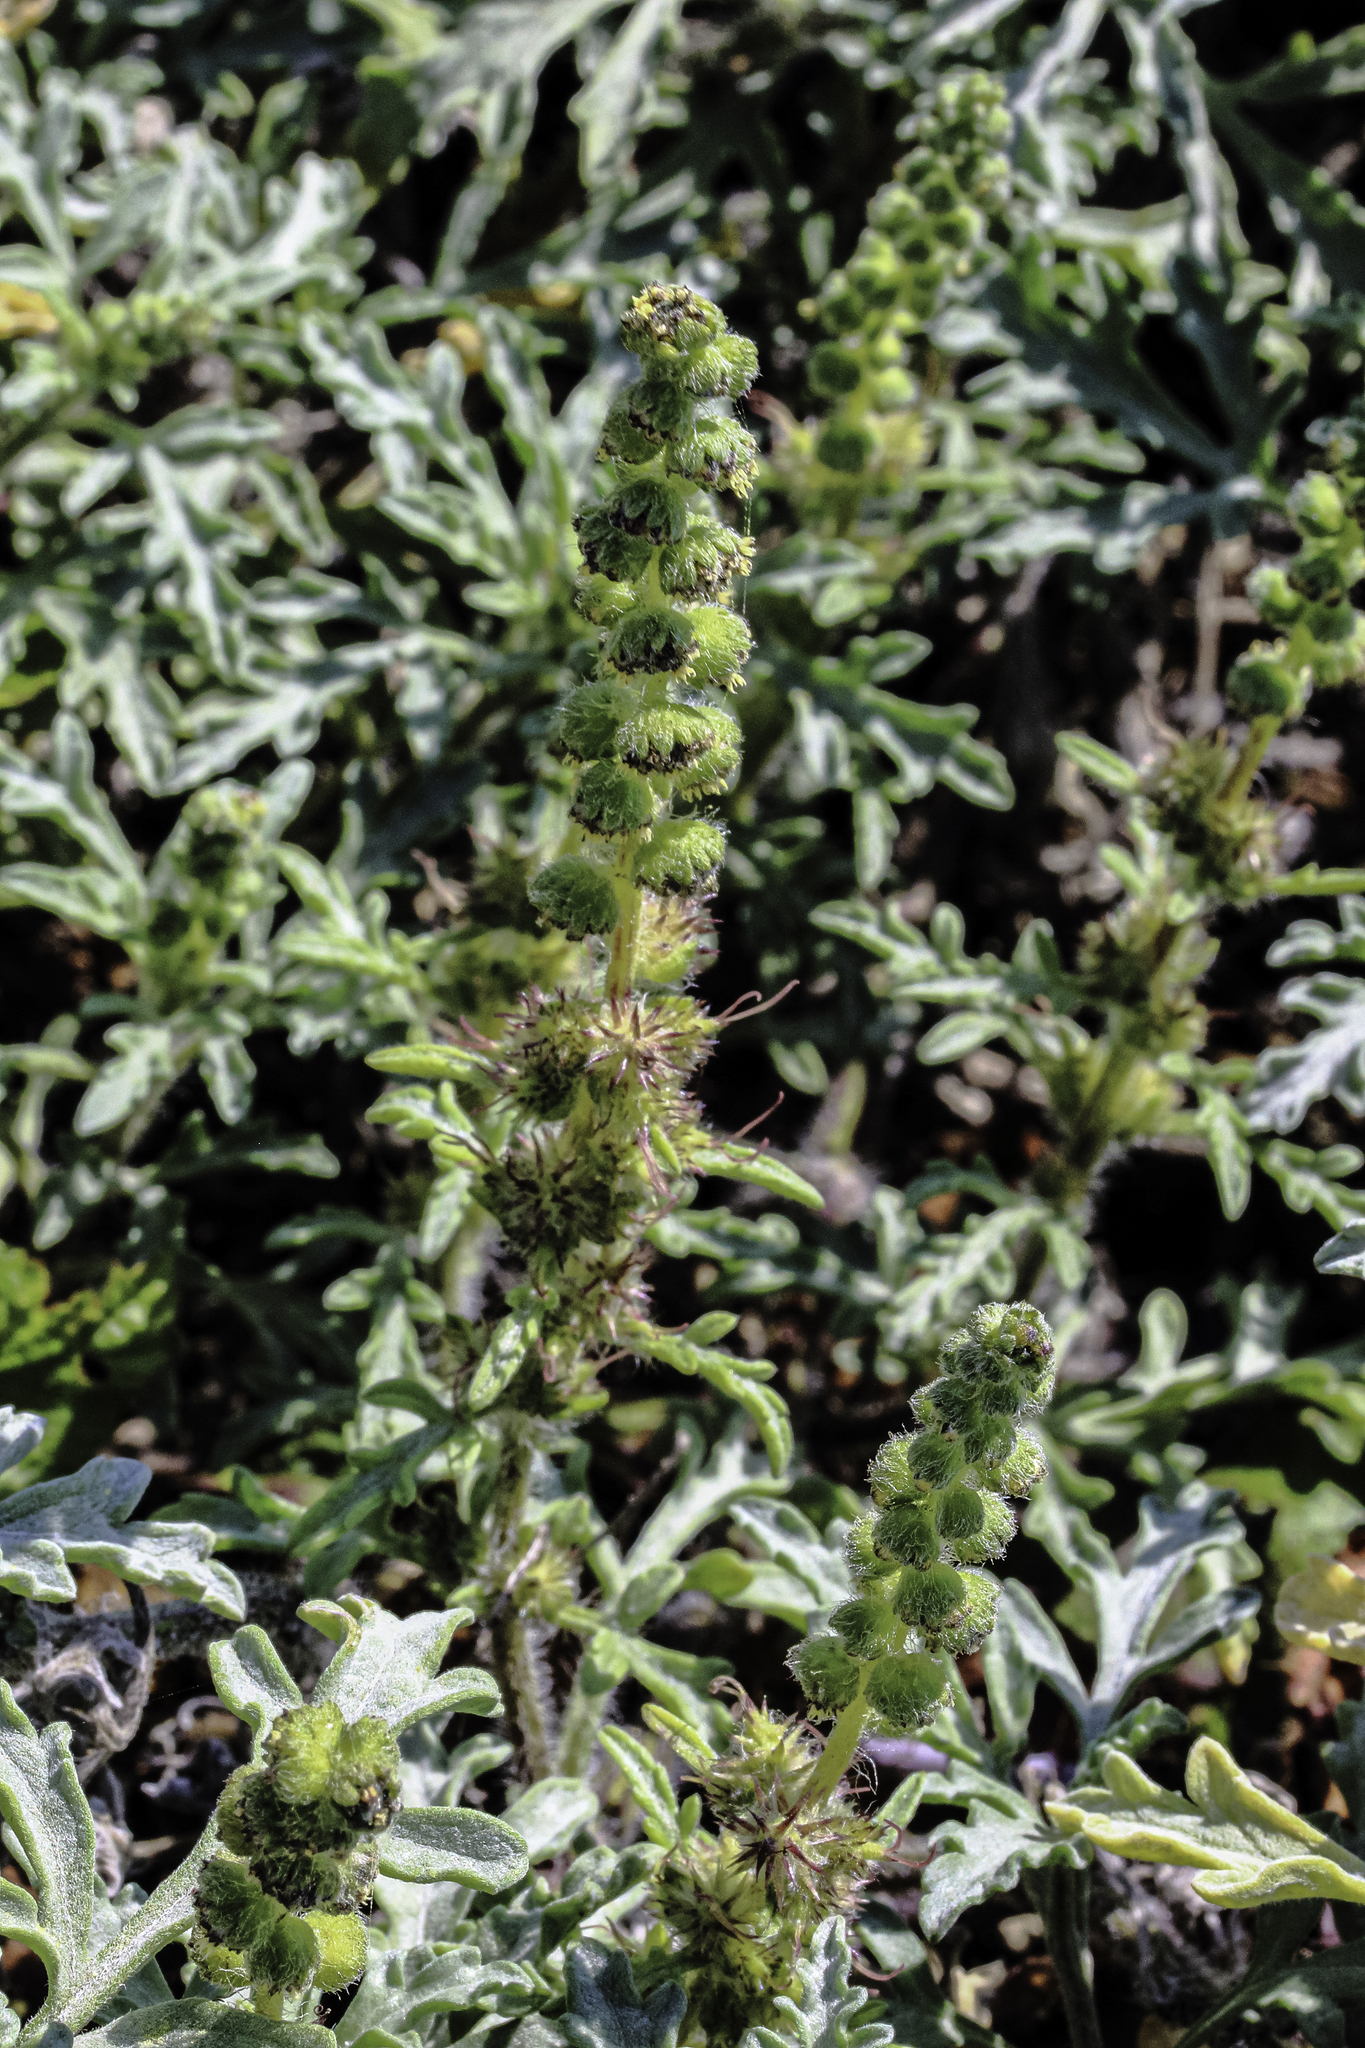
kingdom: Plantae
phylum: Tracheophyta
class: Magnoliopsida
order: Asterales
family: Asteraceae
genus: Ambrosia
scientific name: Ambrosia chamissonis
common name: Beachbur
